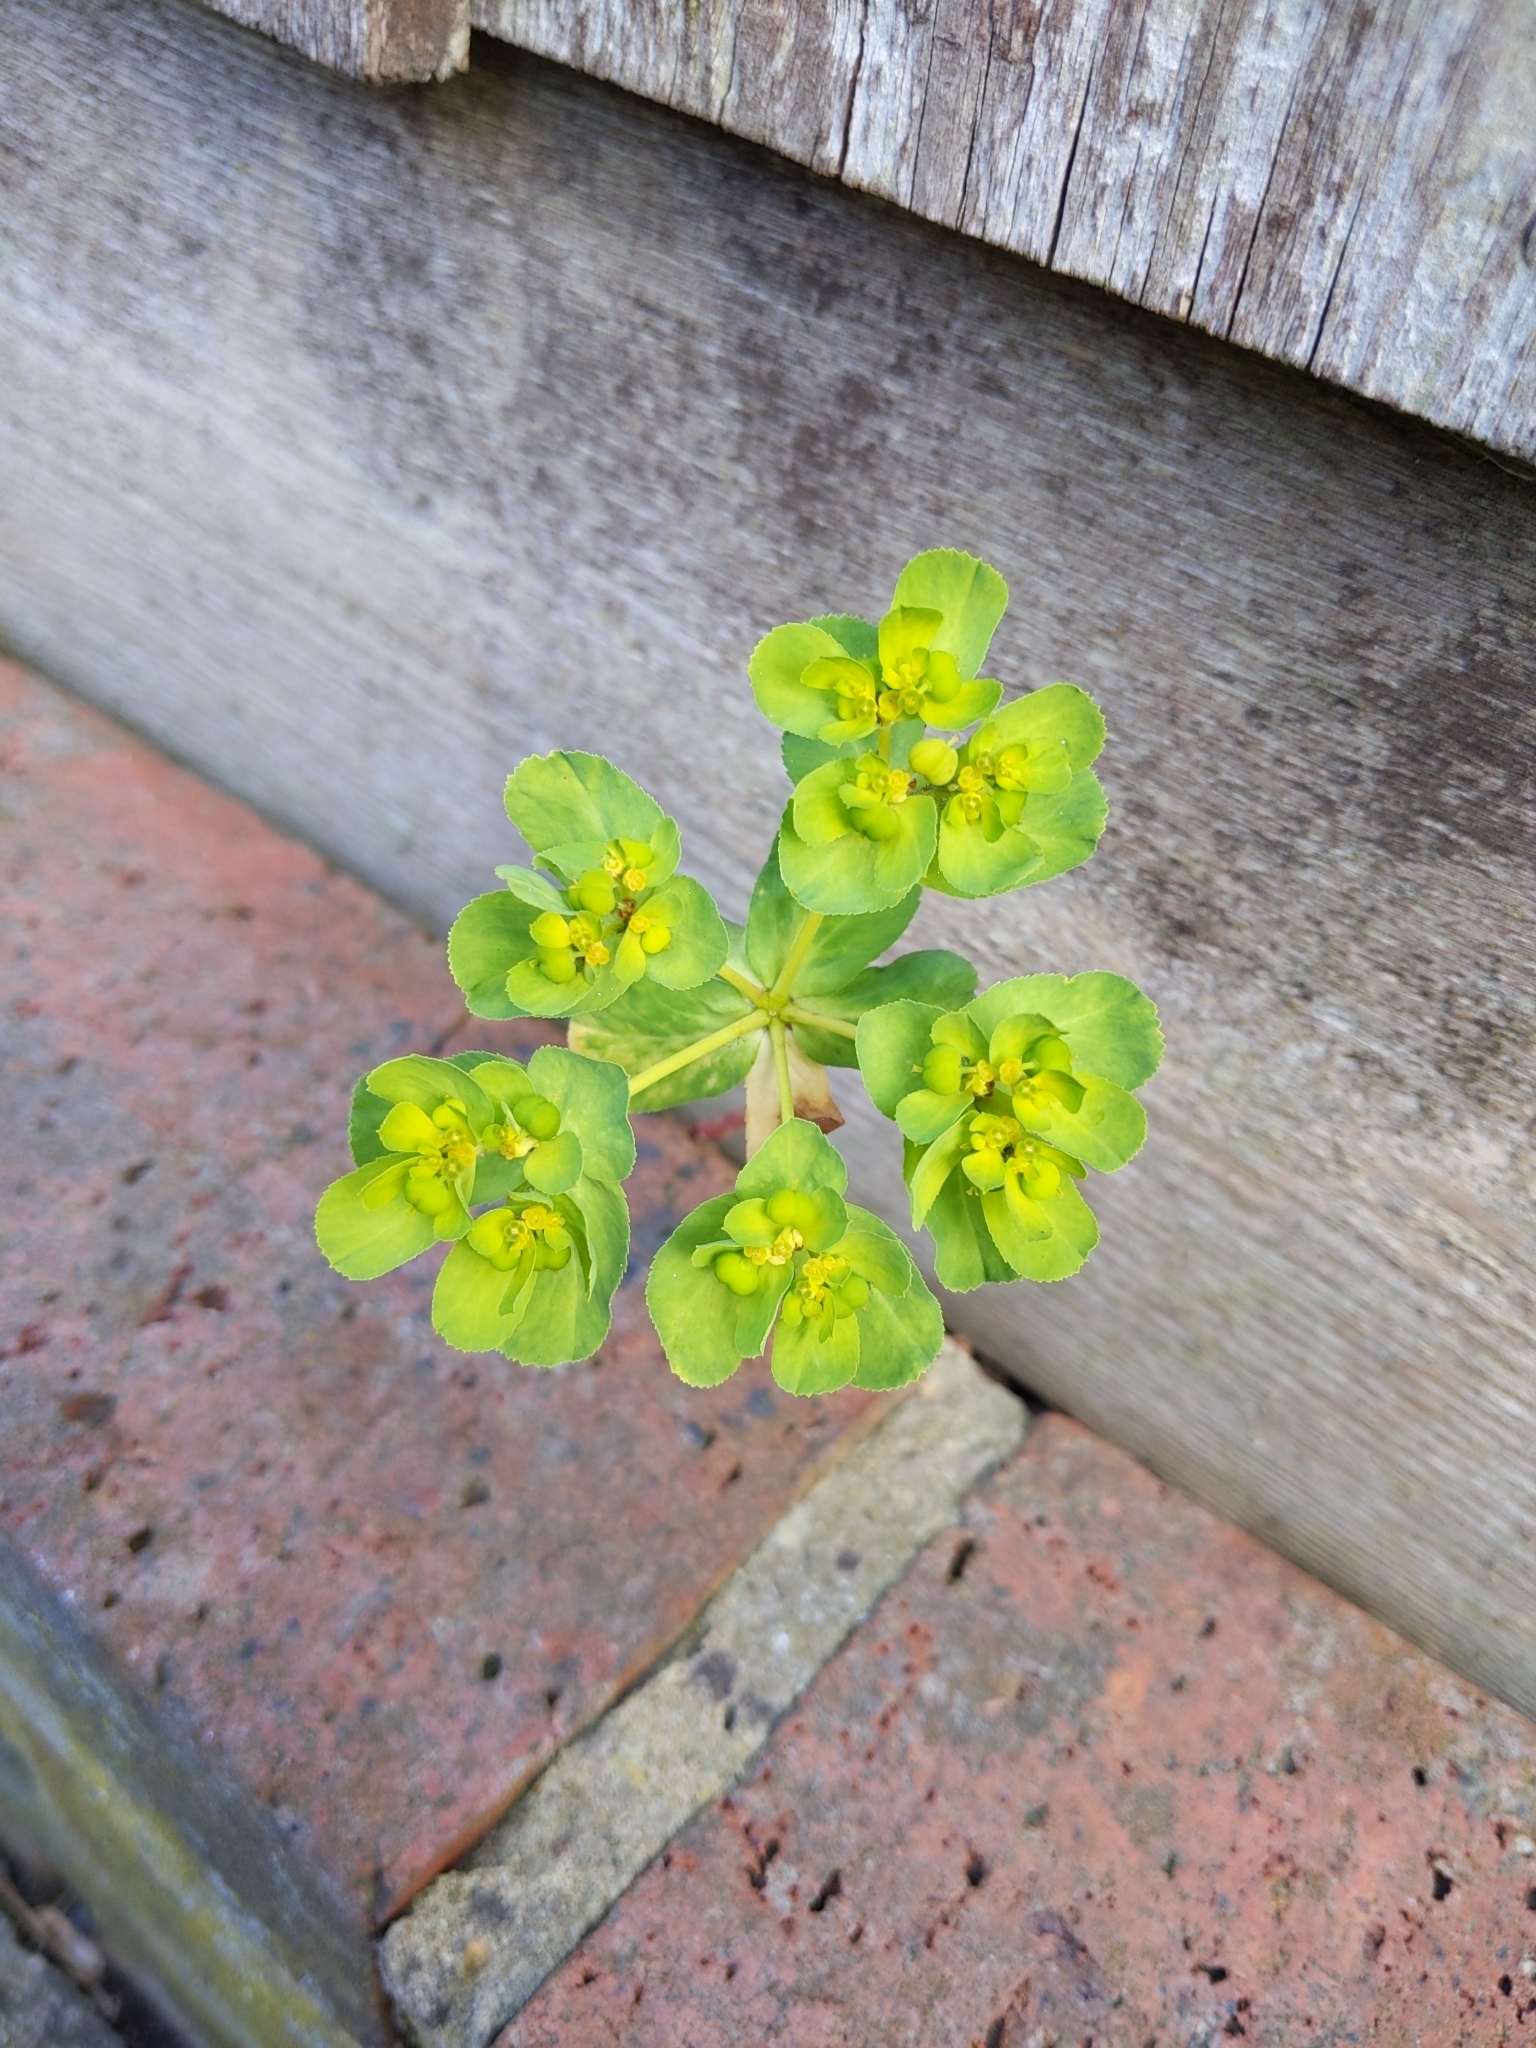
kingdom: Plantae
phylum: Tracheophyta
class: Magnoliopsida
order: Malpighiales
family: Euphorbiaceae
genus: Euphorbia
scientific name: Euphorbia helioscopia
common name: Sun spurge
